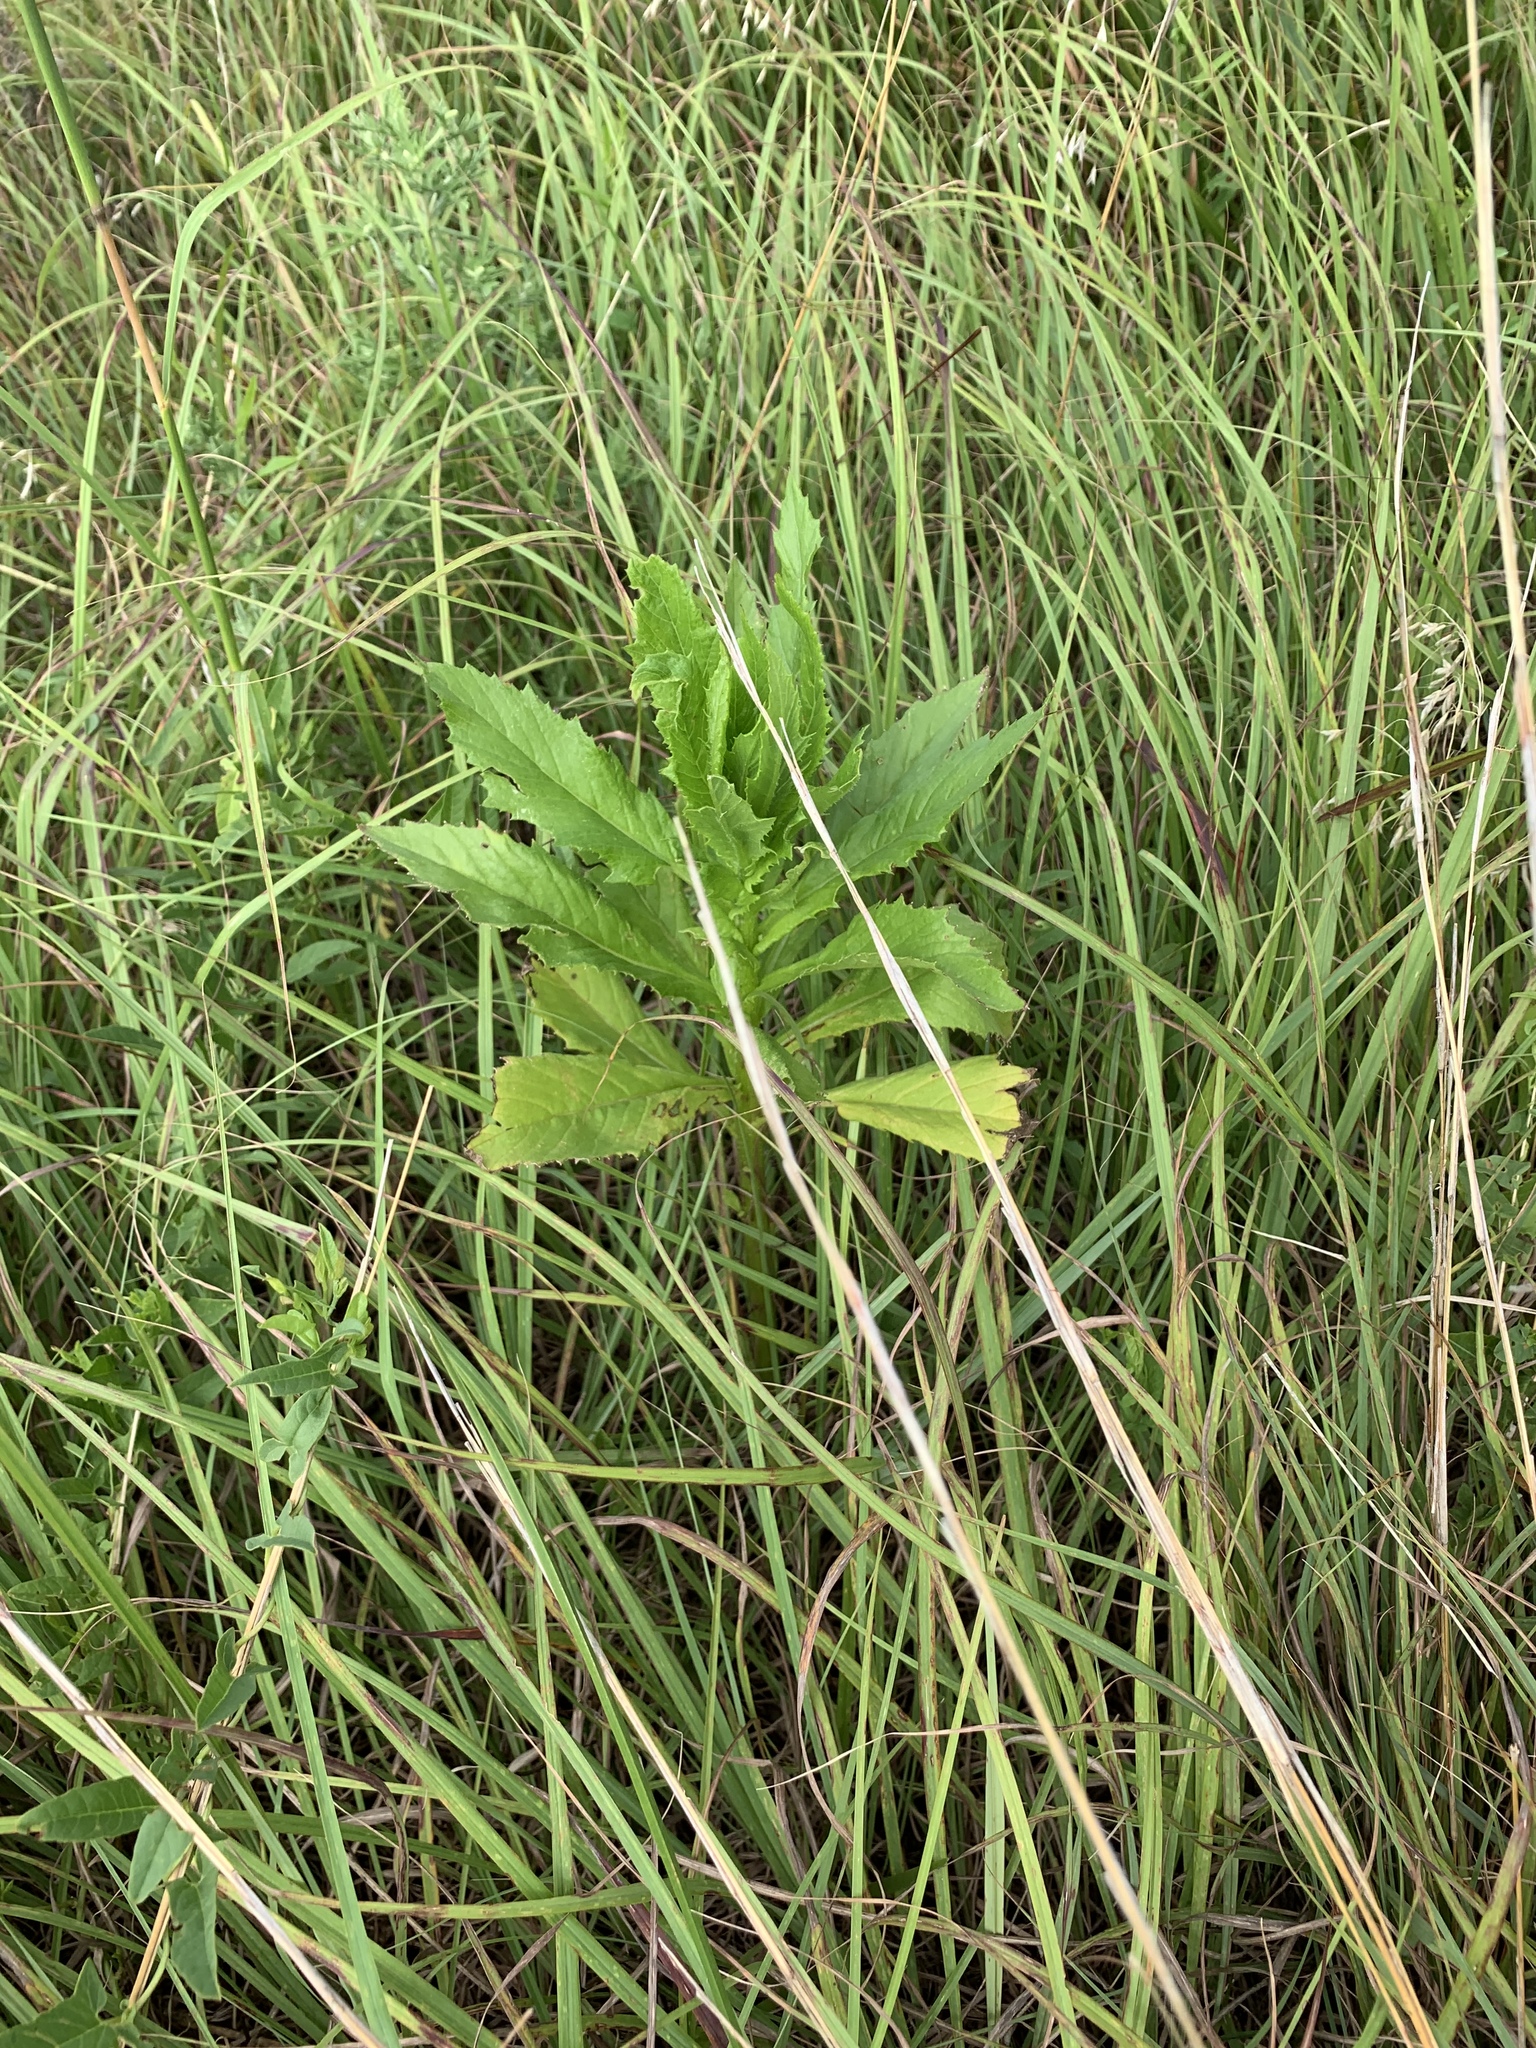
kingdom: Plantae
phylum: Tracheophyta
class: Magnoliopsida
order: Asterales
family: Asteraceae
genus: Erechtites
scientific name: Erechtites hieraciifolius
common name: American burnweed
